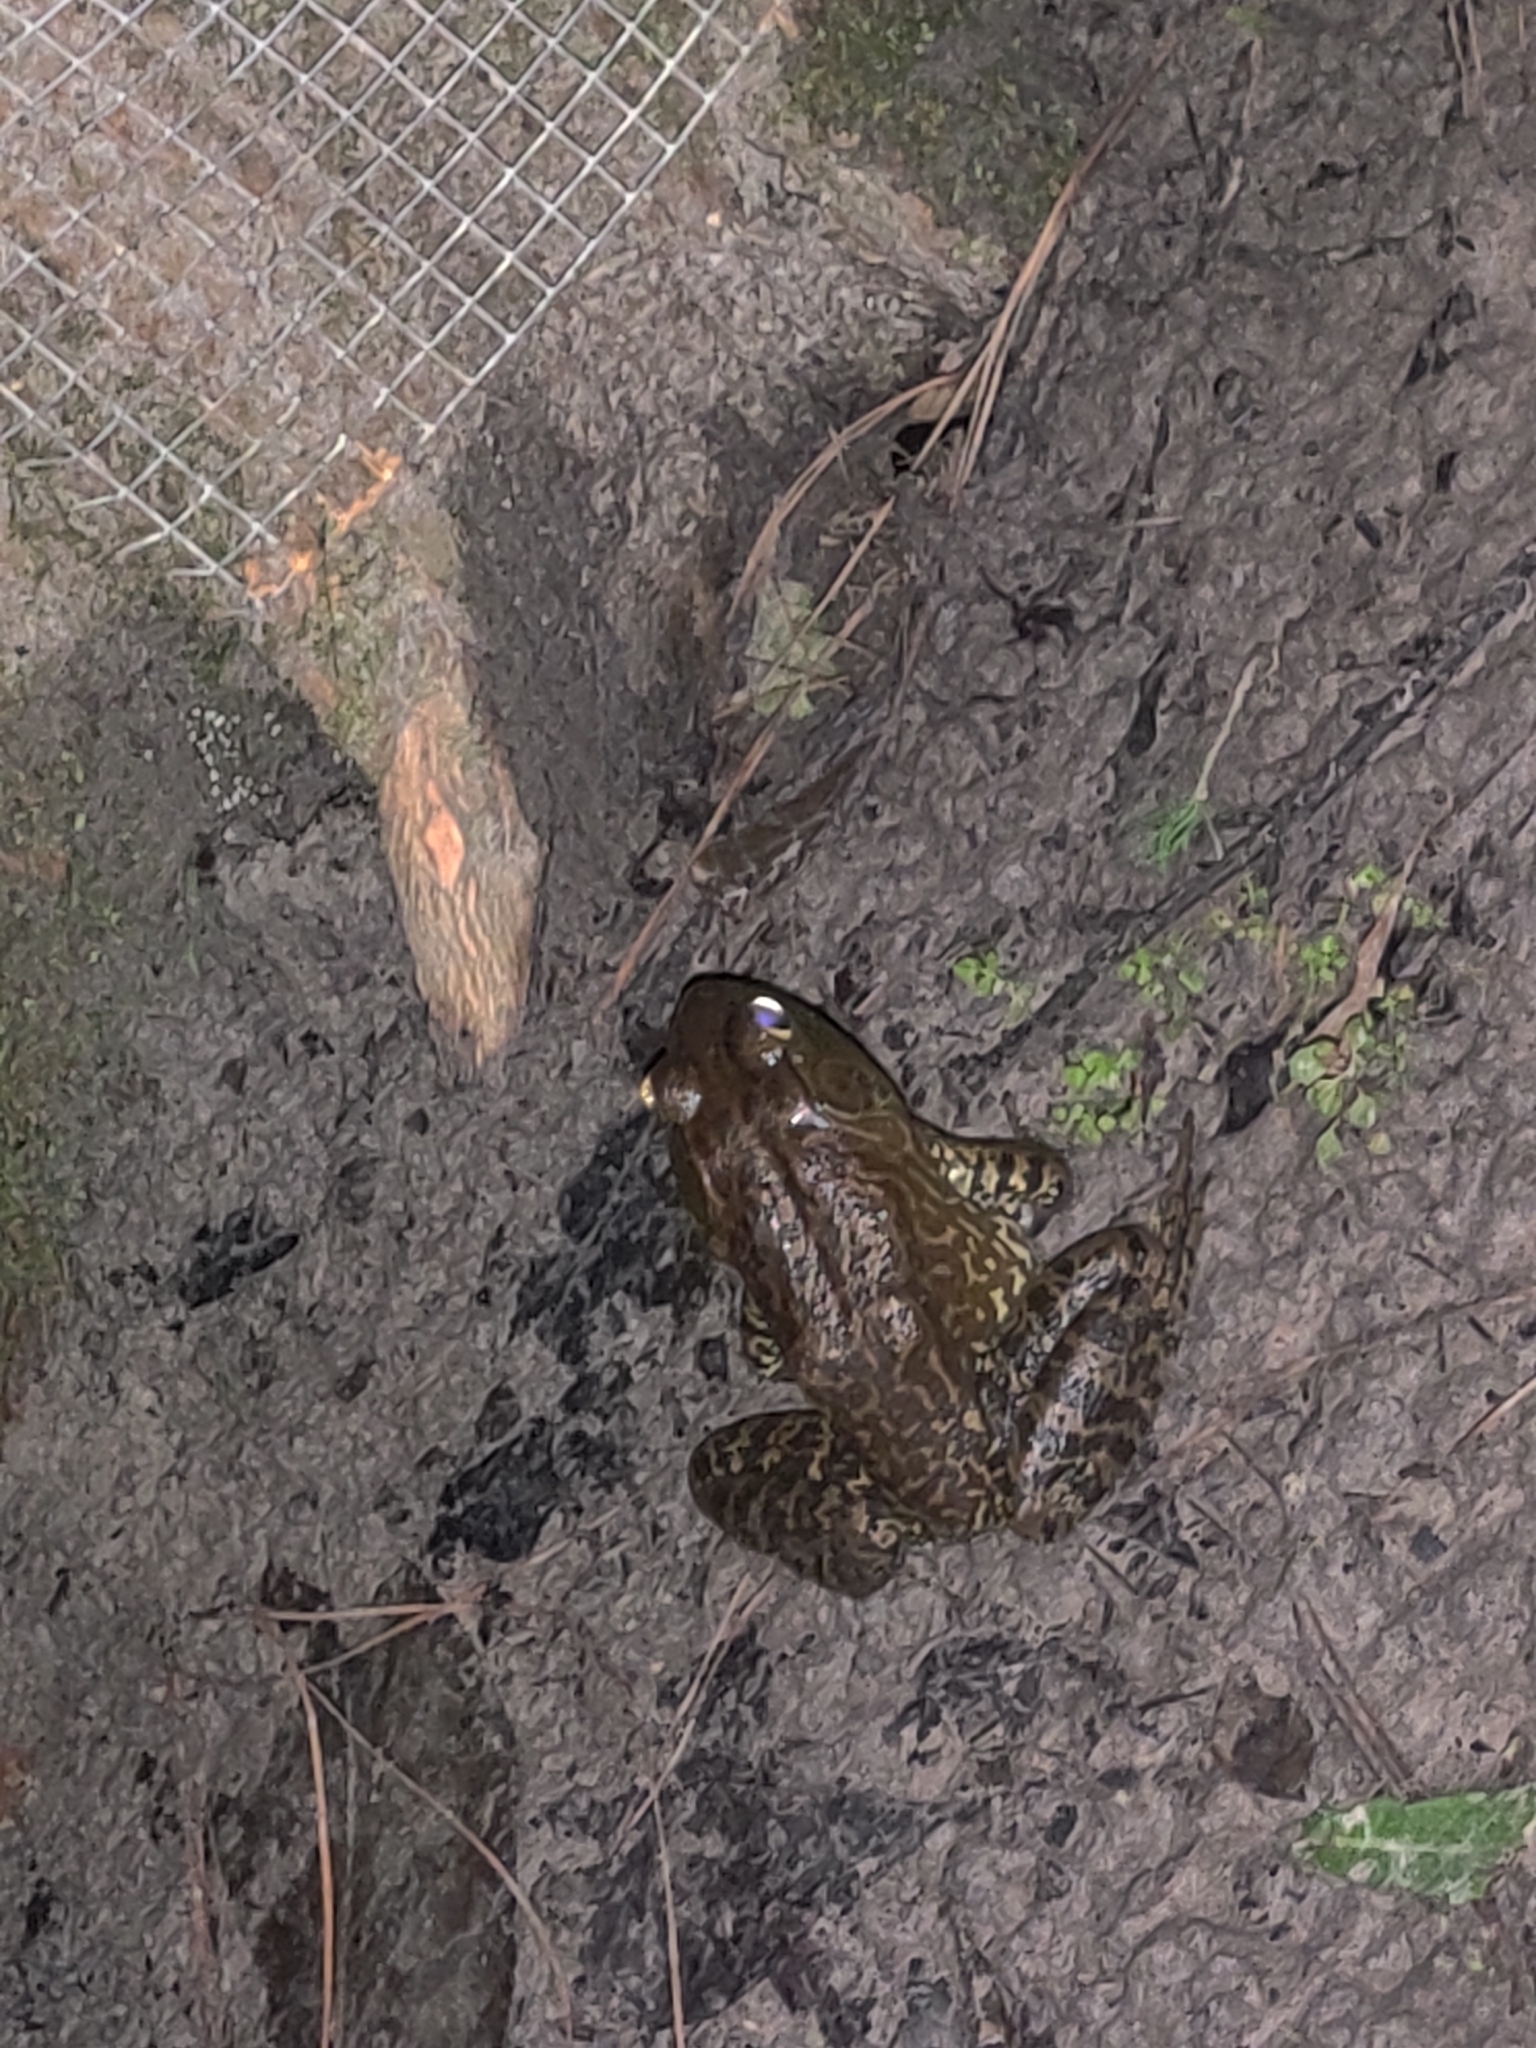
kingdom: Animalia
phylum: Chordata
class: Amphibia
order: Anura
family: Ranidae
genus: Lithobates
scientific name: Lithobates catesbeianus
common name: American bullfrog
